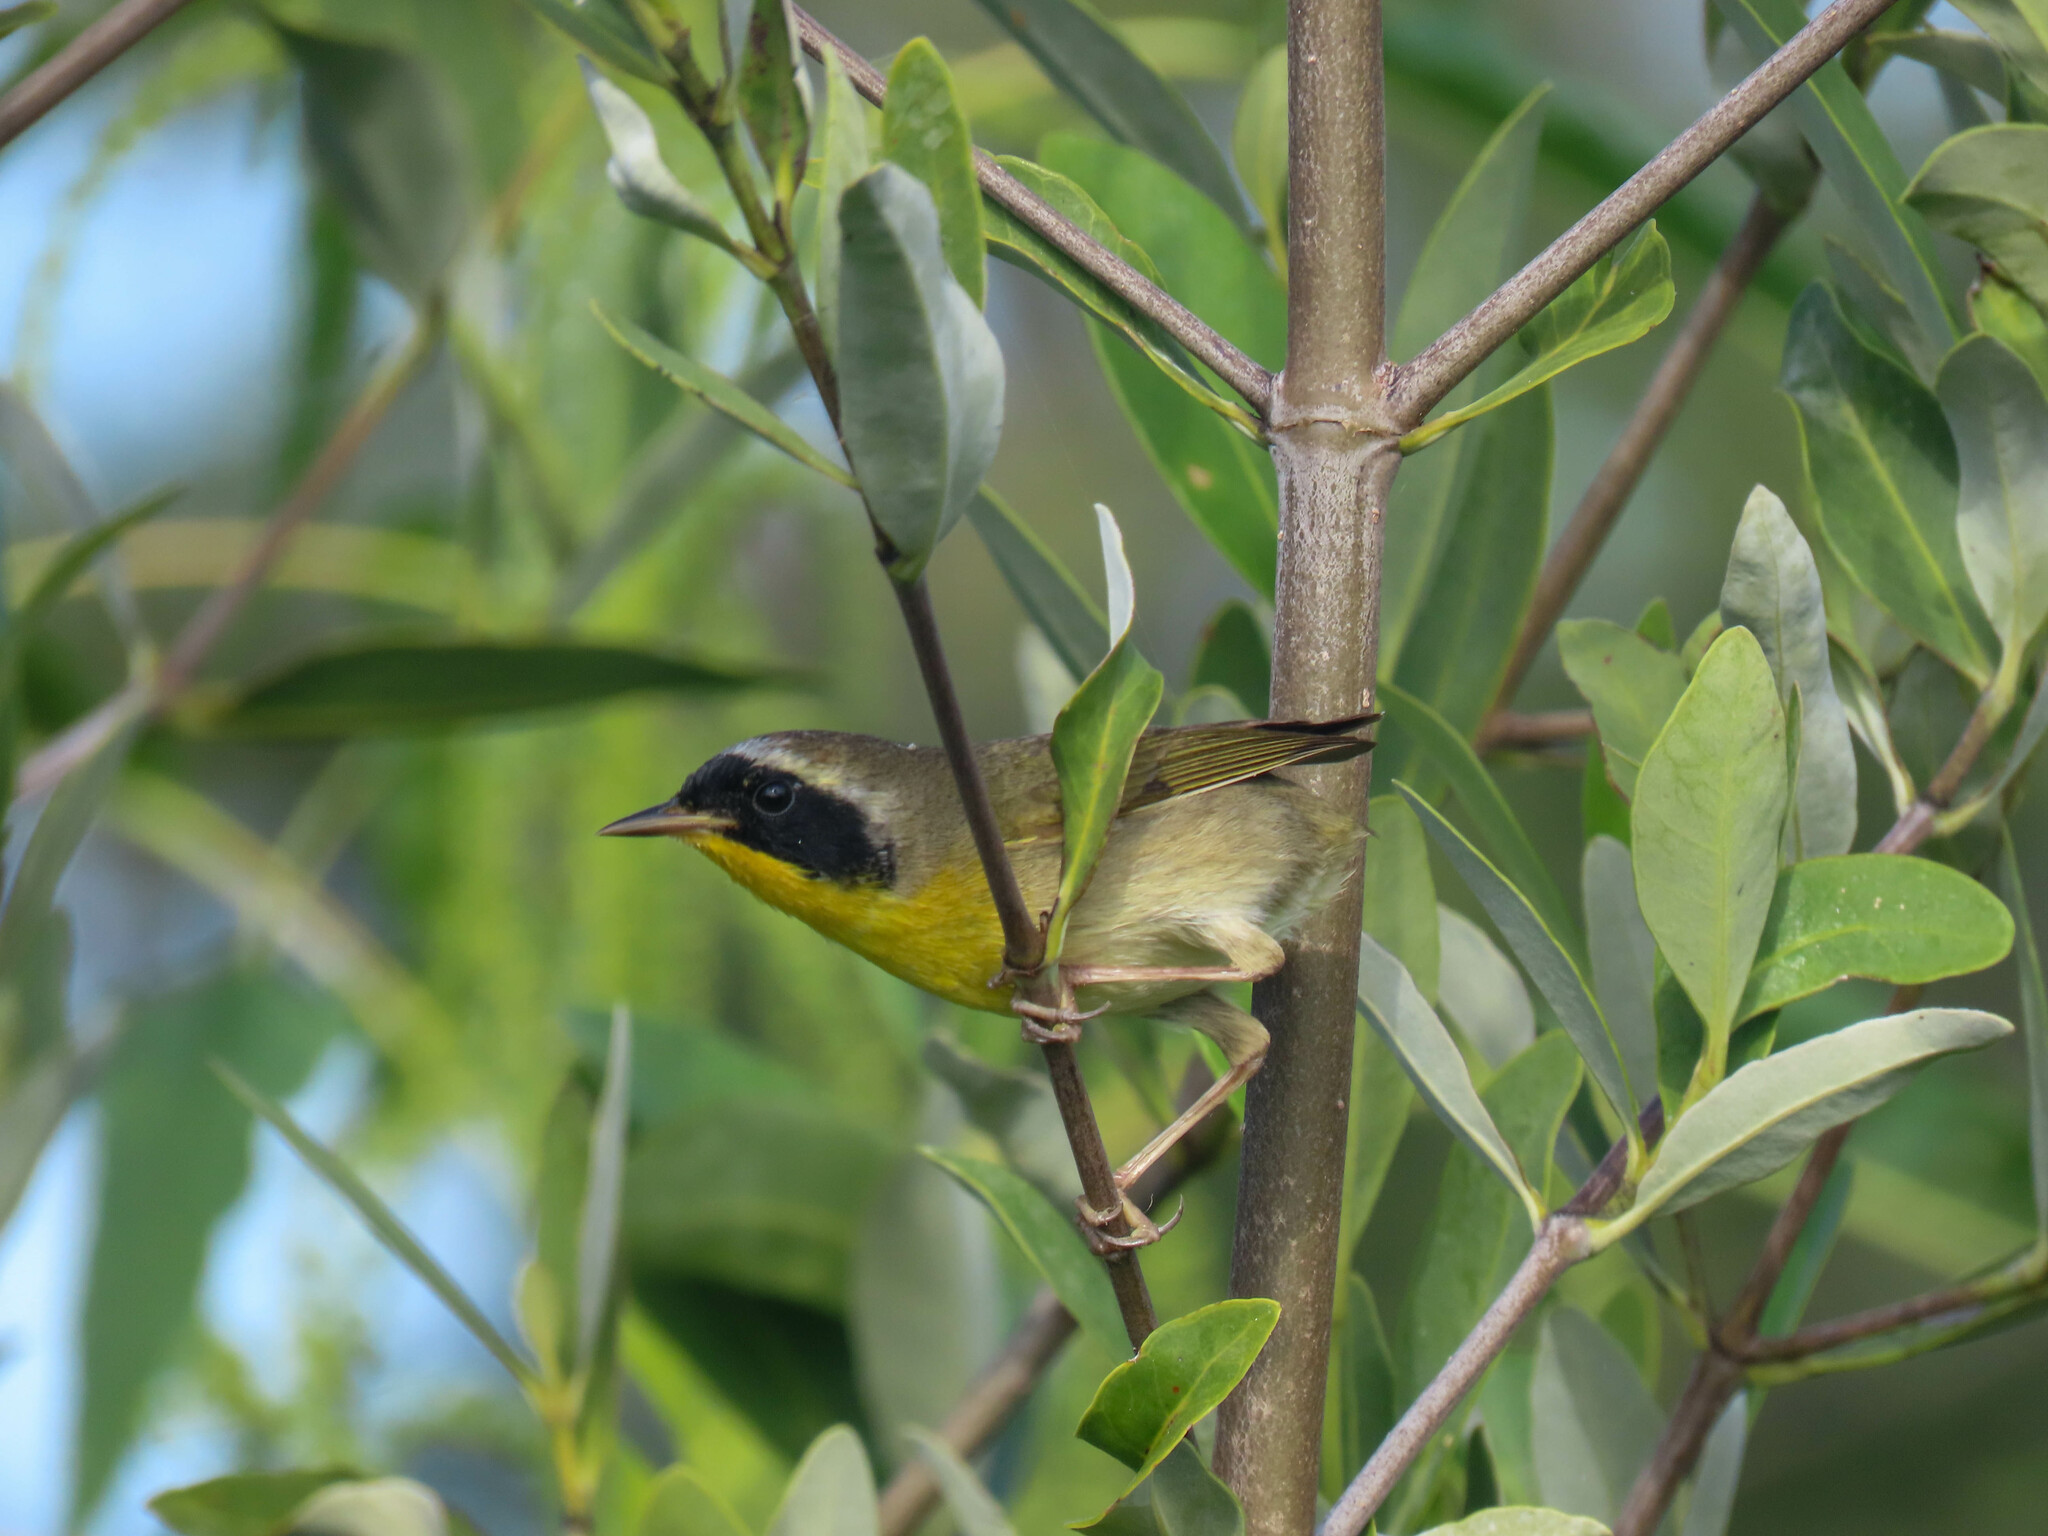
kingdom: Animalia
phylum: Chordata
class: Aves
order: Passeriformes
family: Parulidae
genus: Geothlypis
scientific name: Geothlypis trichas
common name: Common yellowthroat
